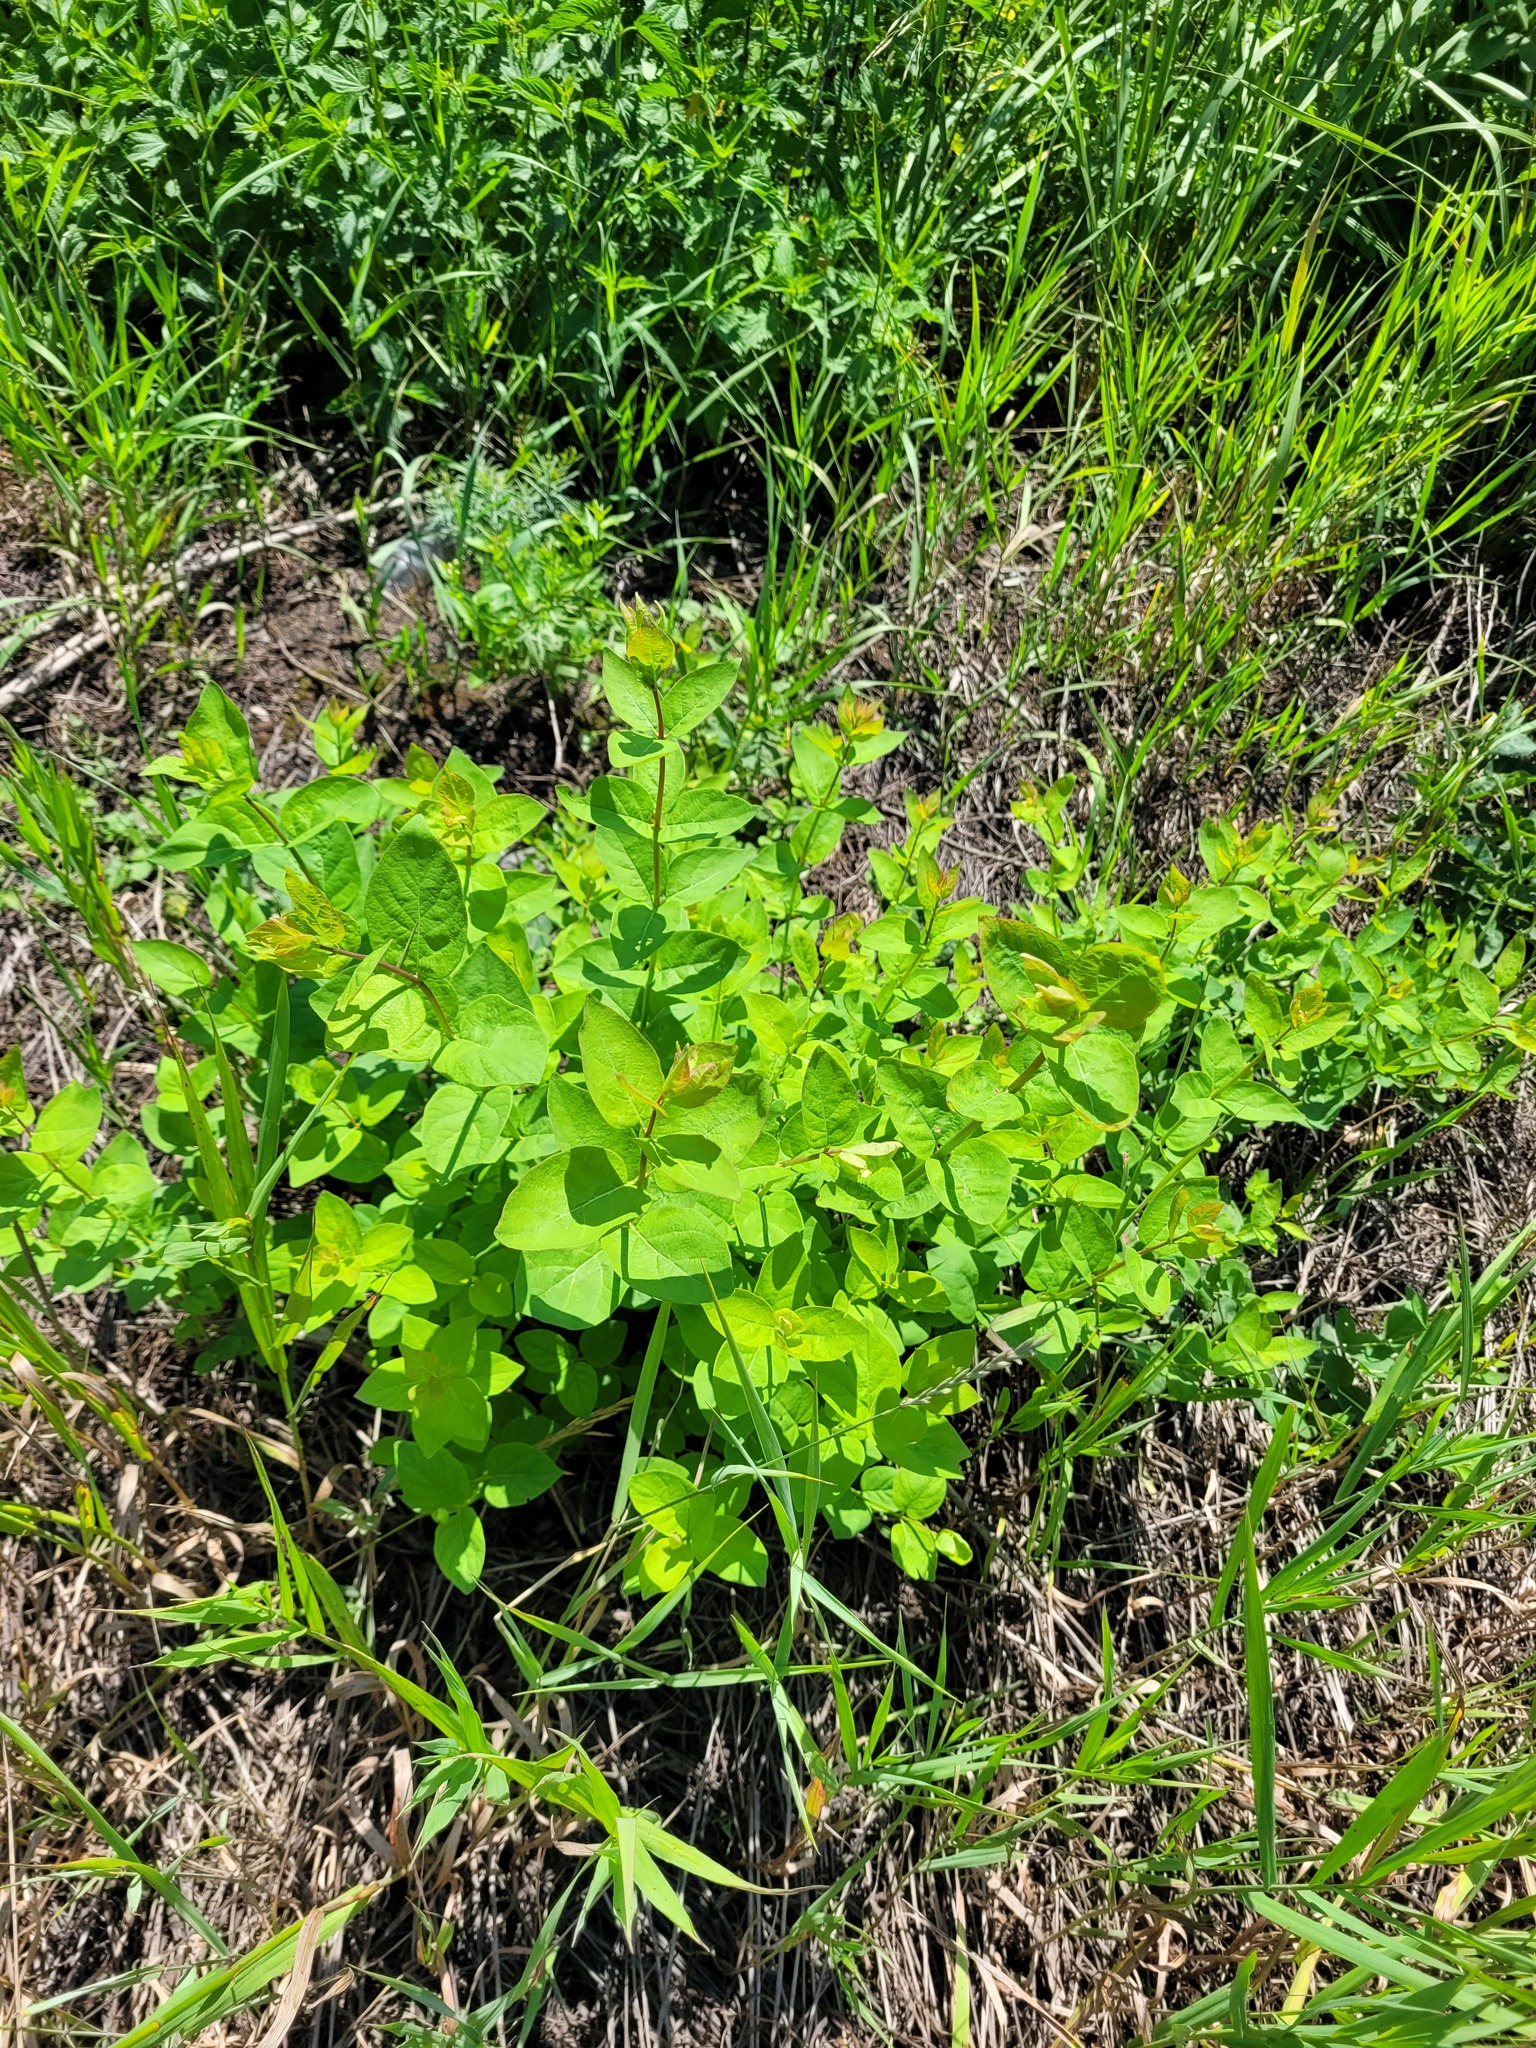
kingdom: Plantae
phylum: Tracheophyta
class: Magnoliopsida
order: Dipsacales
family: Caprifoliaceae
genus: Lonicera
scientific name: Lonicera tatarica
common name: Tatarian honeysuckle
